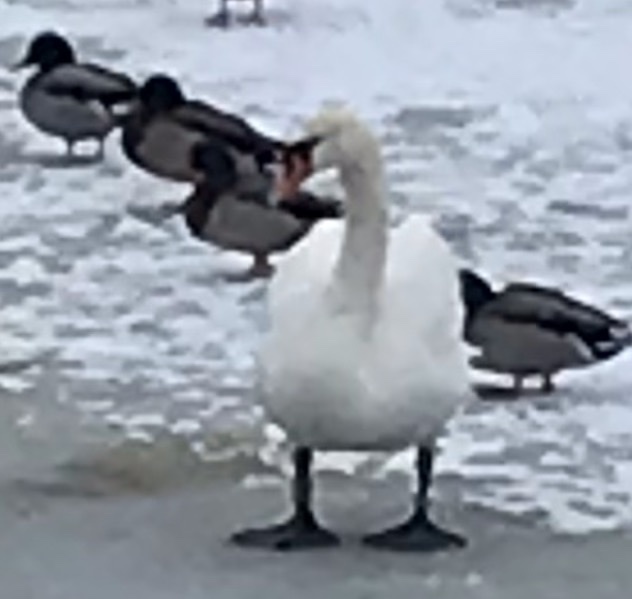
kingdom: Animalia
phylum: Chordata
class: Aves
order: Anseriformes
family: Anatidae
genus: Cygnus
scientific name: Cygnus olor
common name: Mute swan
